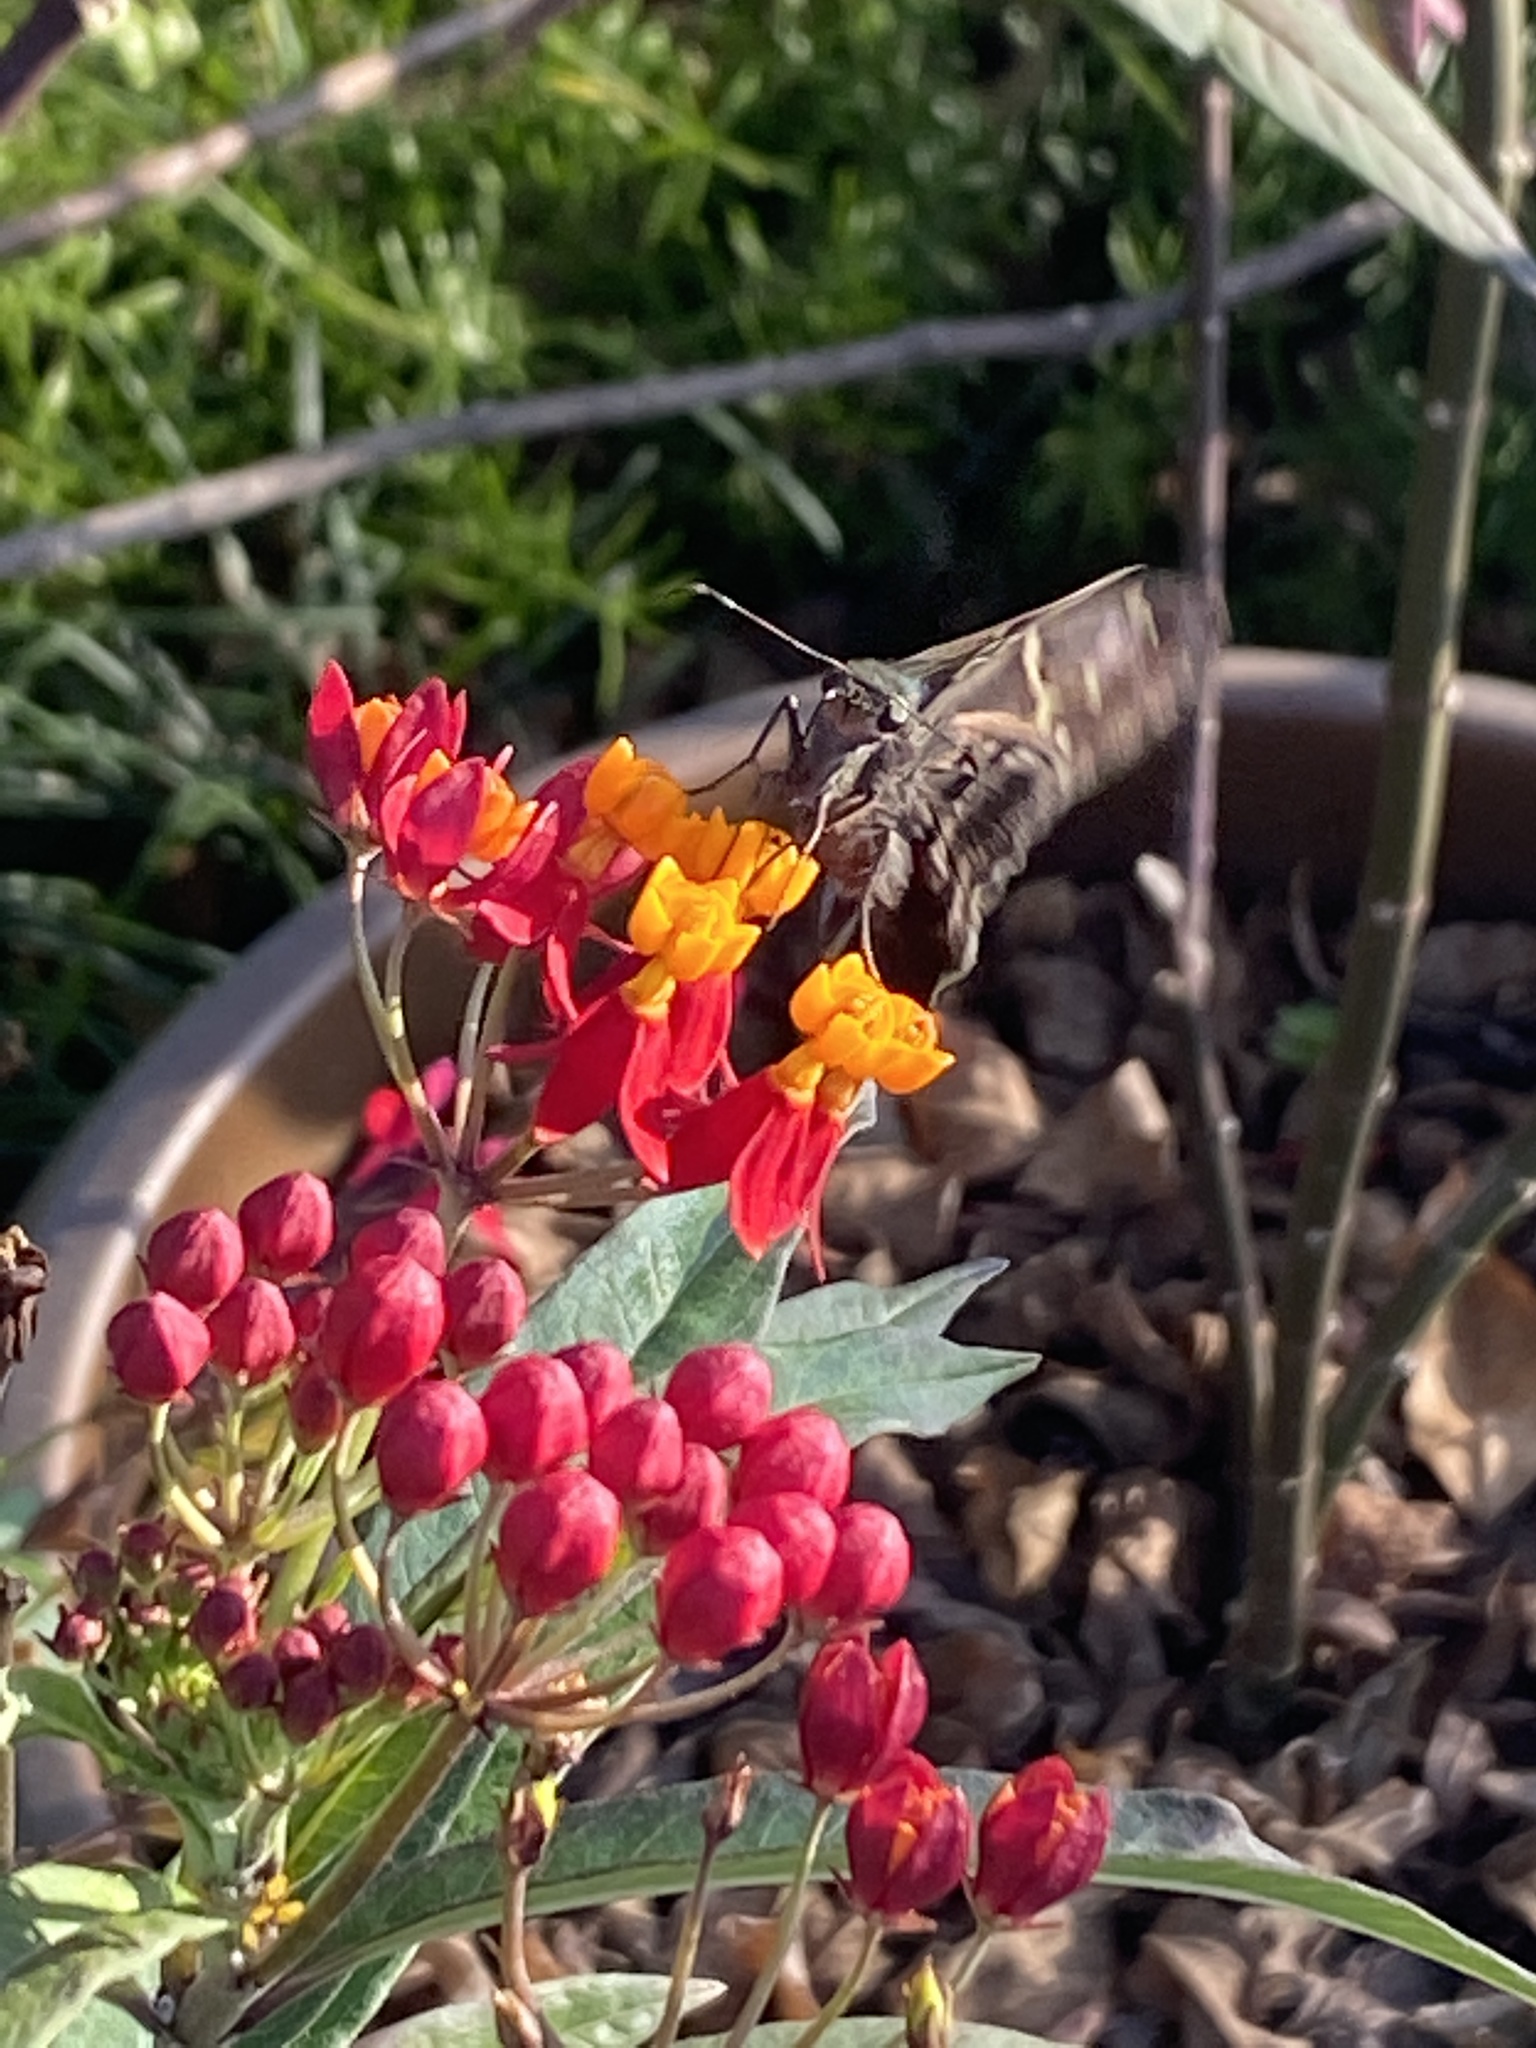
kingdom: Animalia
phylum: Arthropoda
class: Insecta
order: Lepidoptera
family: Hesperiidae
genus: Urbanus
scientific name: Urbanus proteus
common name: Long-tailed skipper
